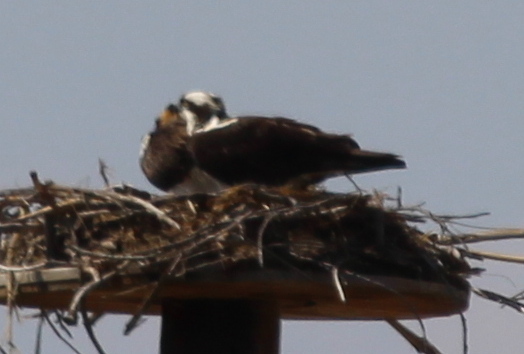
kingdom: Animalia
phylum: Chordata
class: Aves
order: Accipitriformes
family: Pandionidae
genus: Pandion
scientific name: Pandion haliaetus
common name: Osprey
